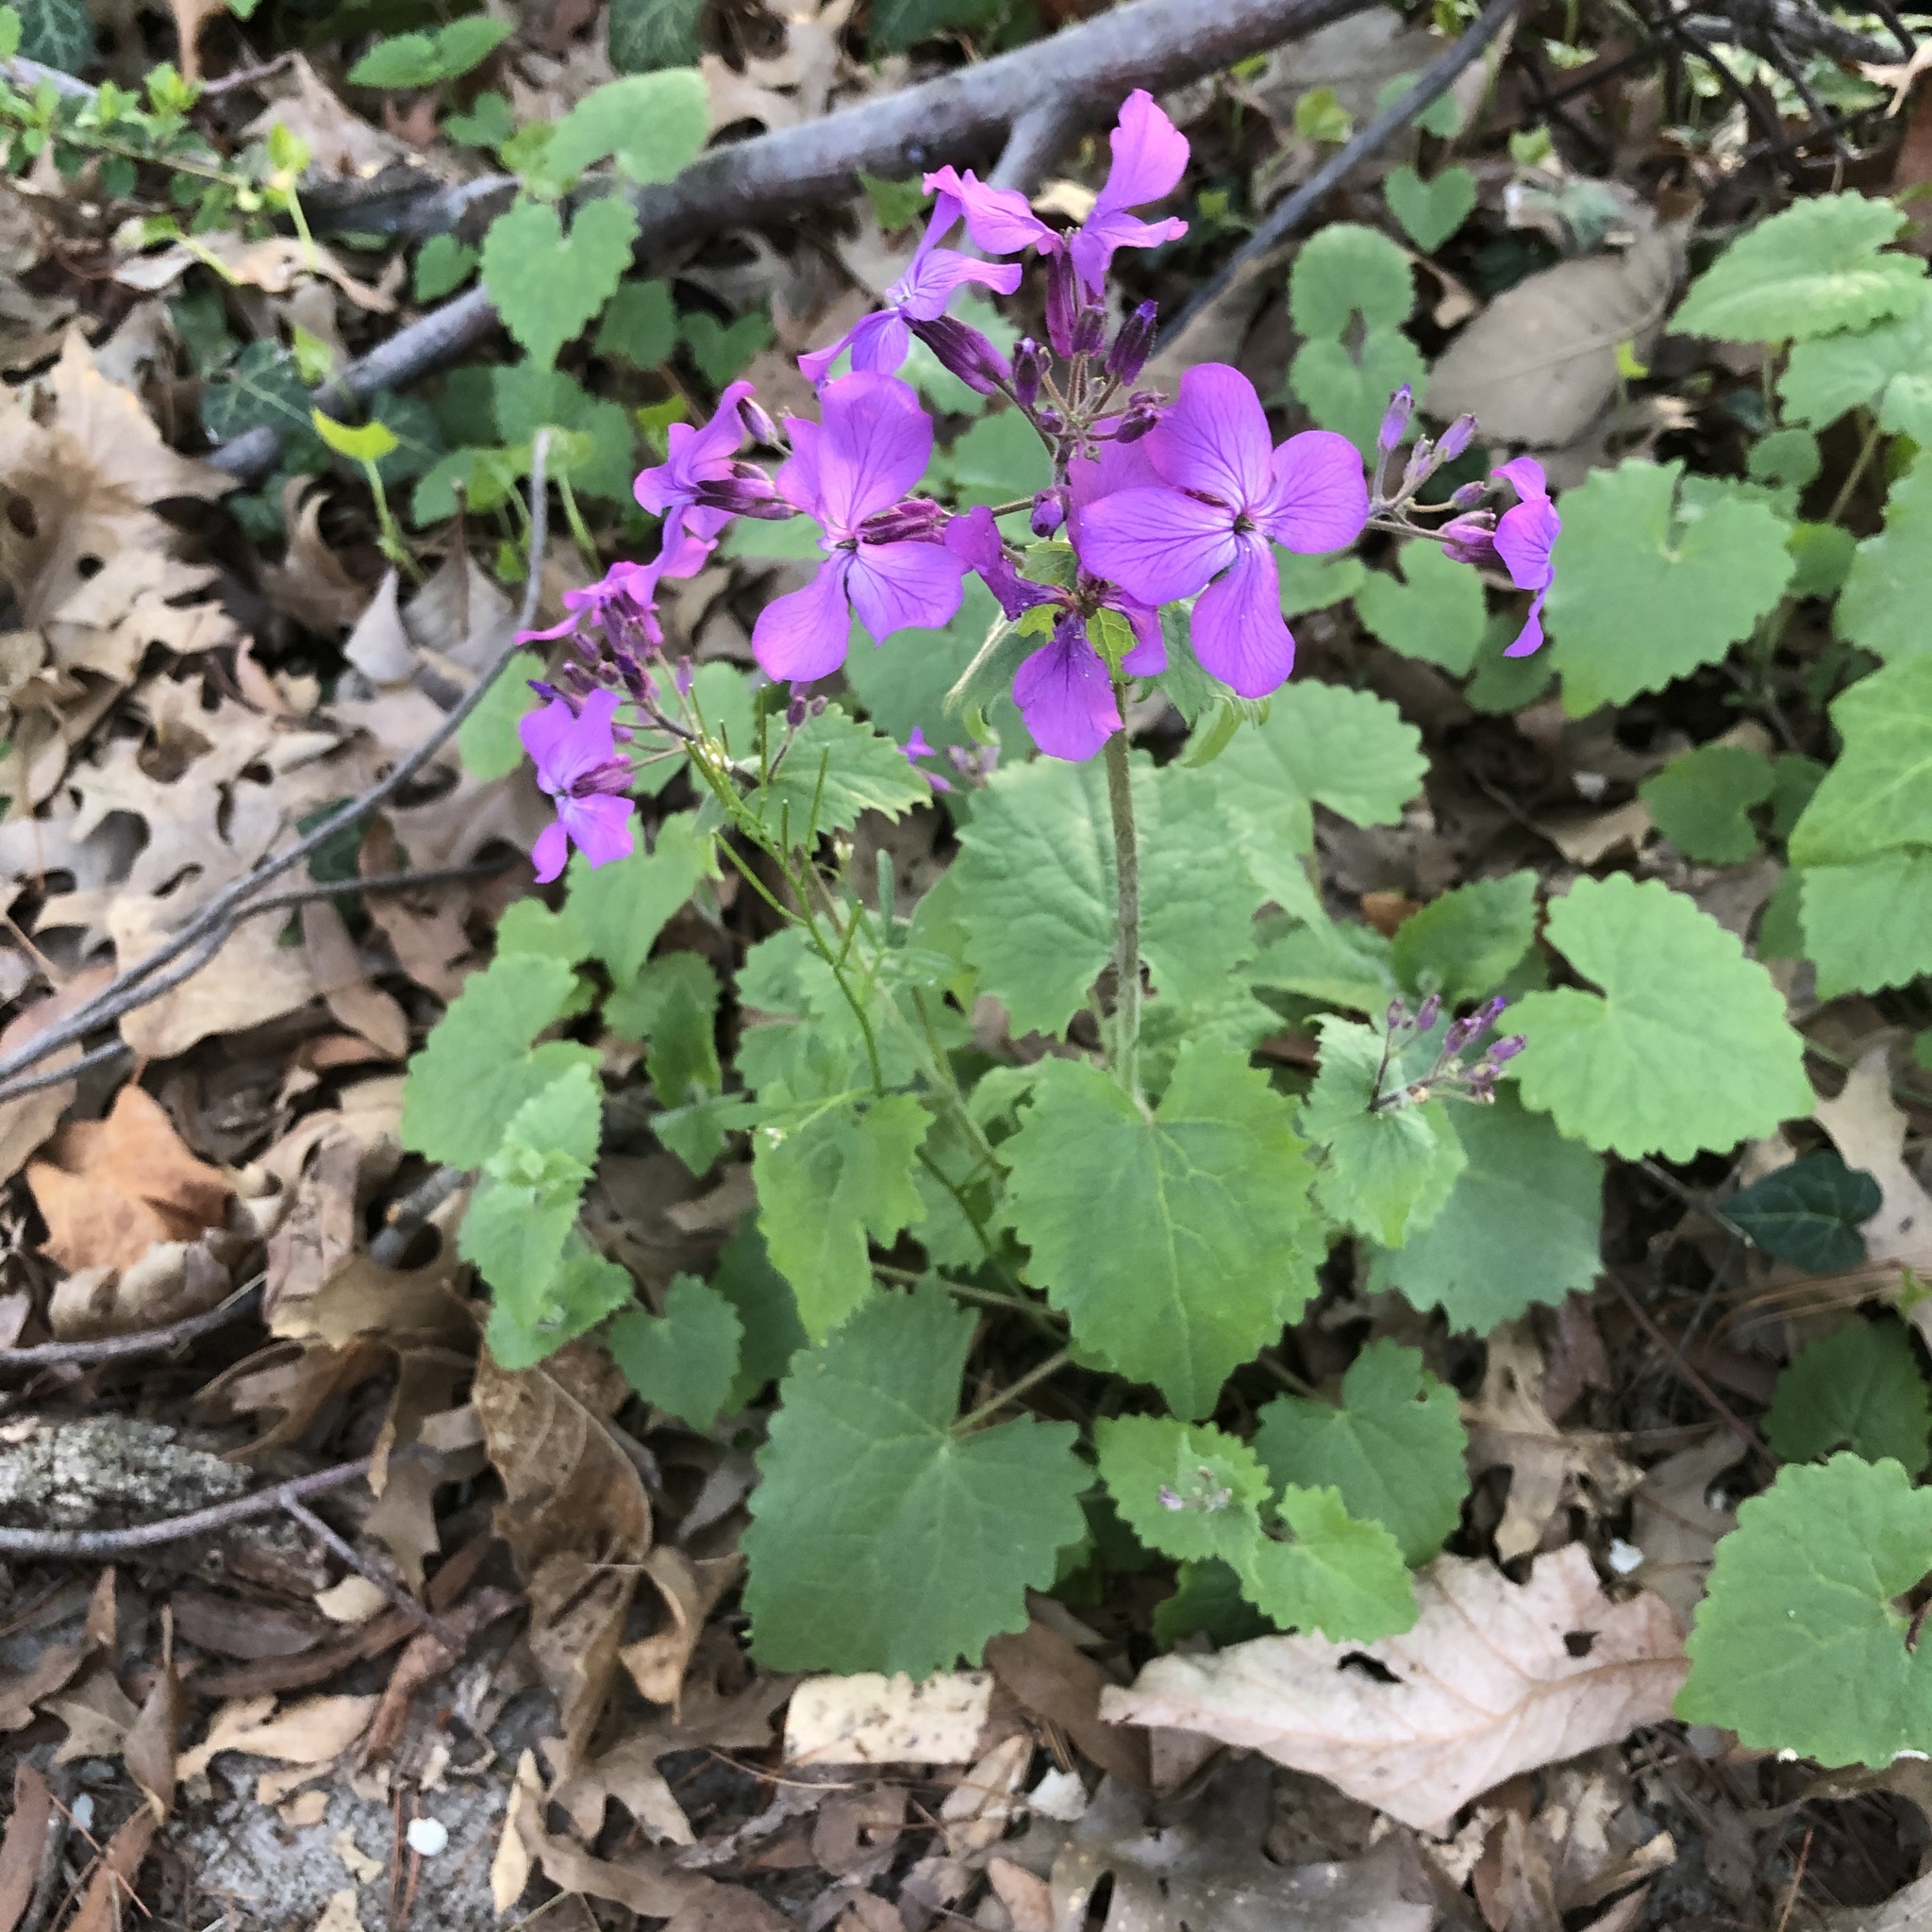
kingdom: Plantae
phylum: Tracheophyta
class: Magnoliopsida
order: Brassicales
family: Brassicaceae
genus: Lunaria
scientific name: Lunaria annua
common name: Honesty
